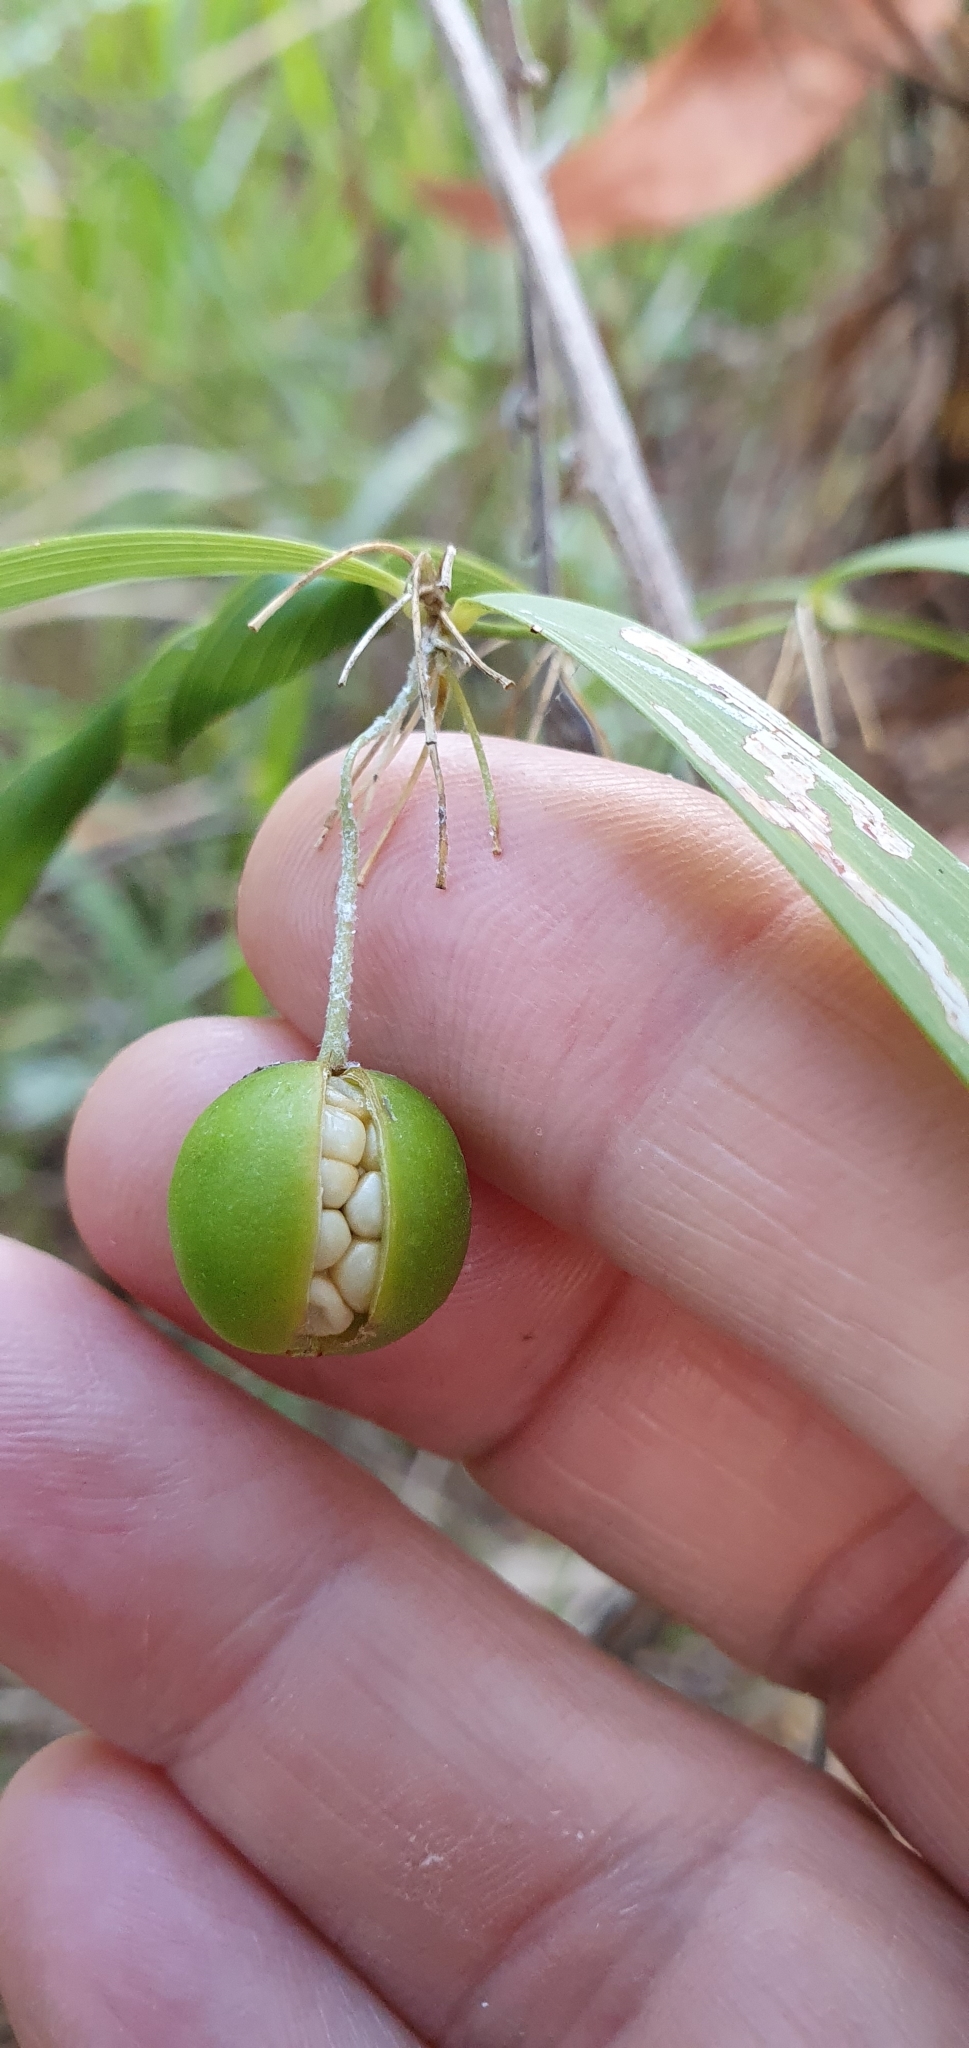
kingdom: Plantae
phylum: Tracheophyta
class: Liliopsida
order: Asparagales
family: Asparagaceae
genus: Eustrephus
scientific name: Eustrephus latifolius
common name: Orangevine
